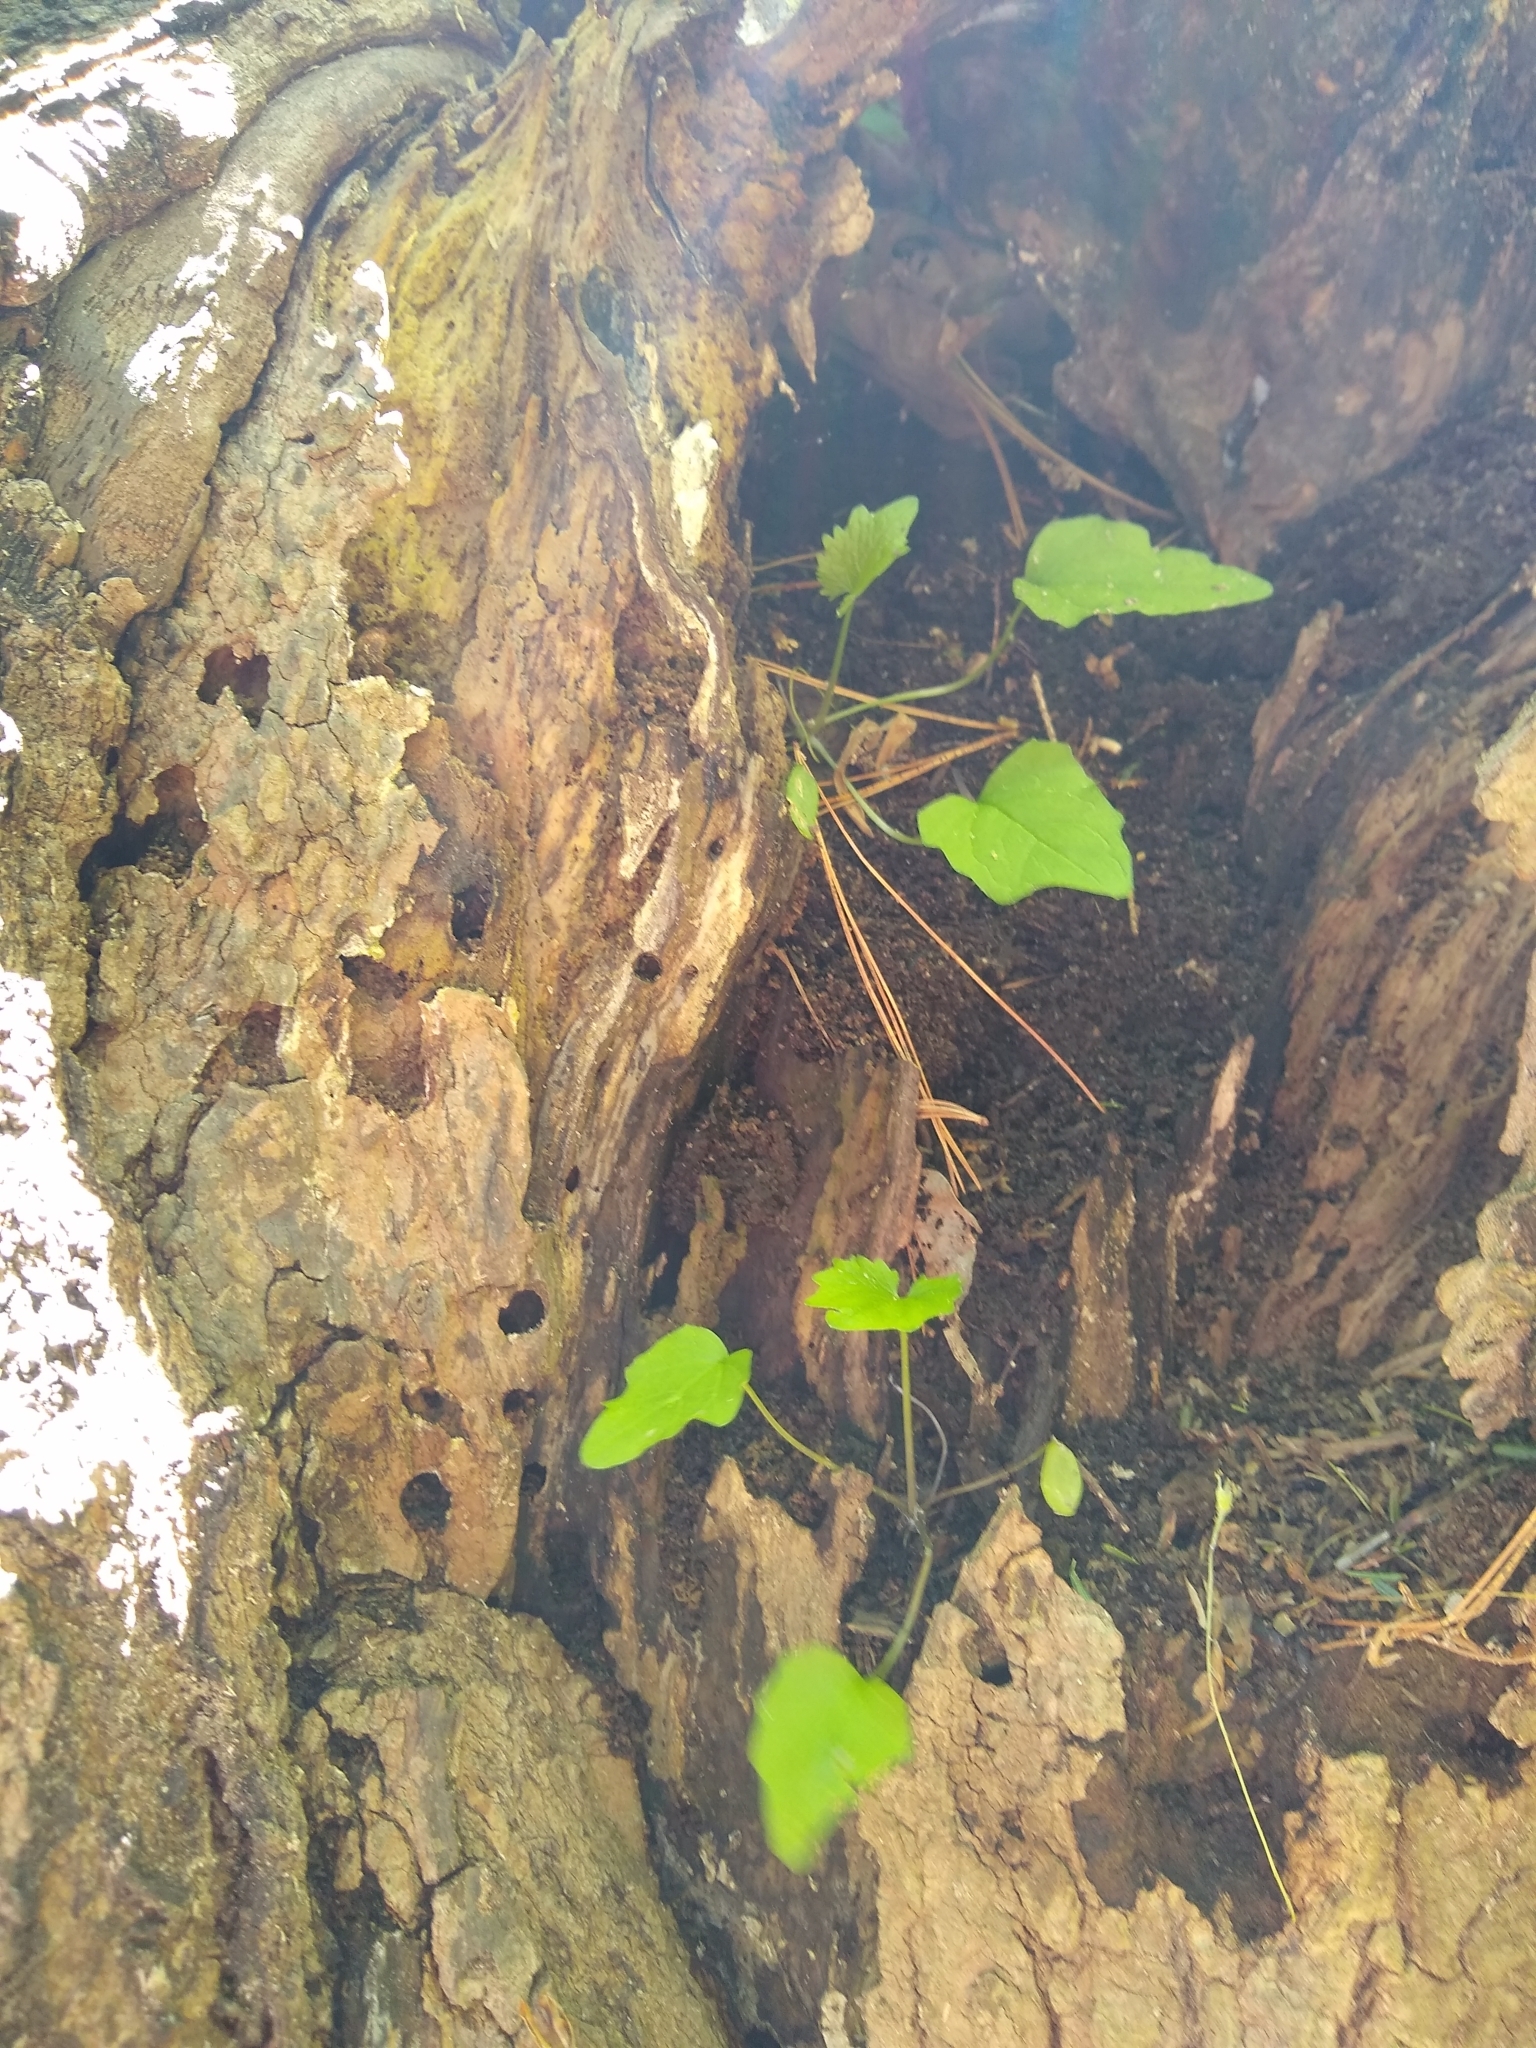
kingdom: Plantae
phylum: Tracheophyta
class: Magnoliopsida
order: Brassicales
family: Brassicaceae
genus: Alliaria
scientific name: Alliaria petiolata
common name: Garlic mustard
